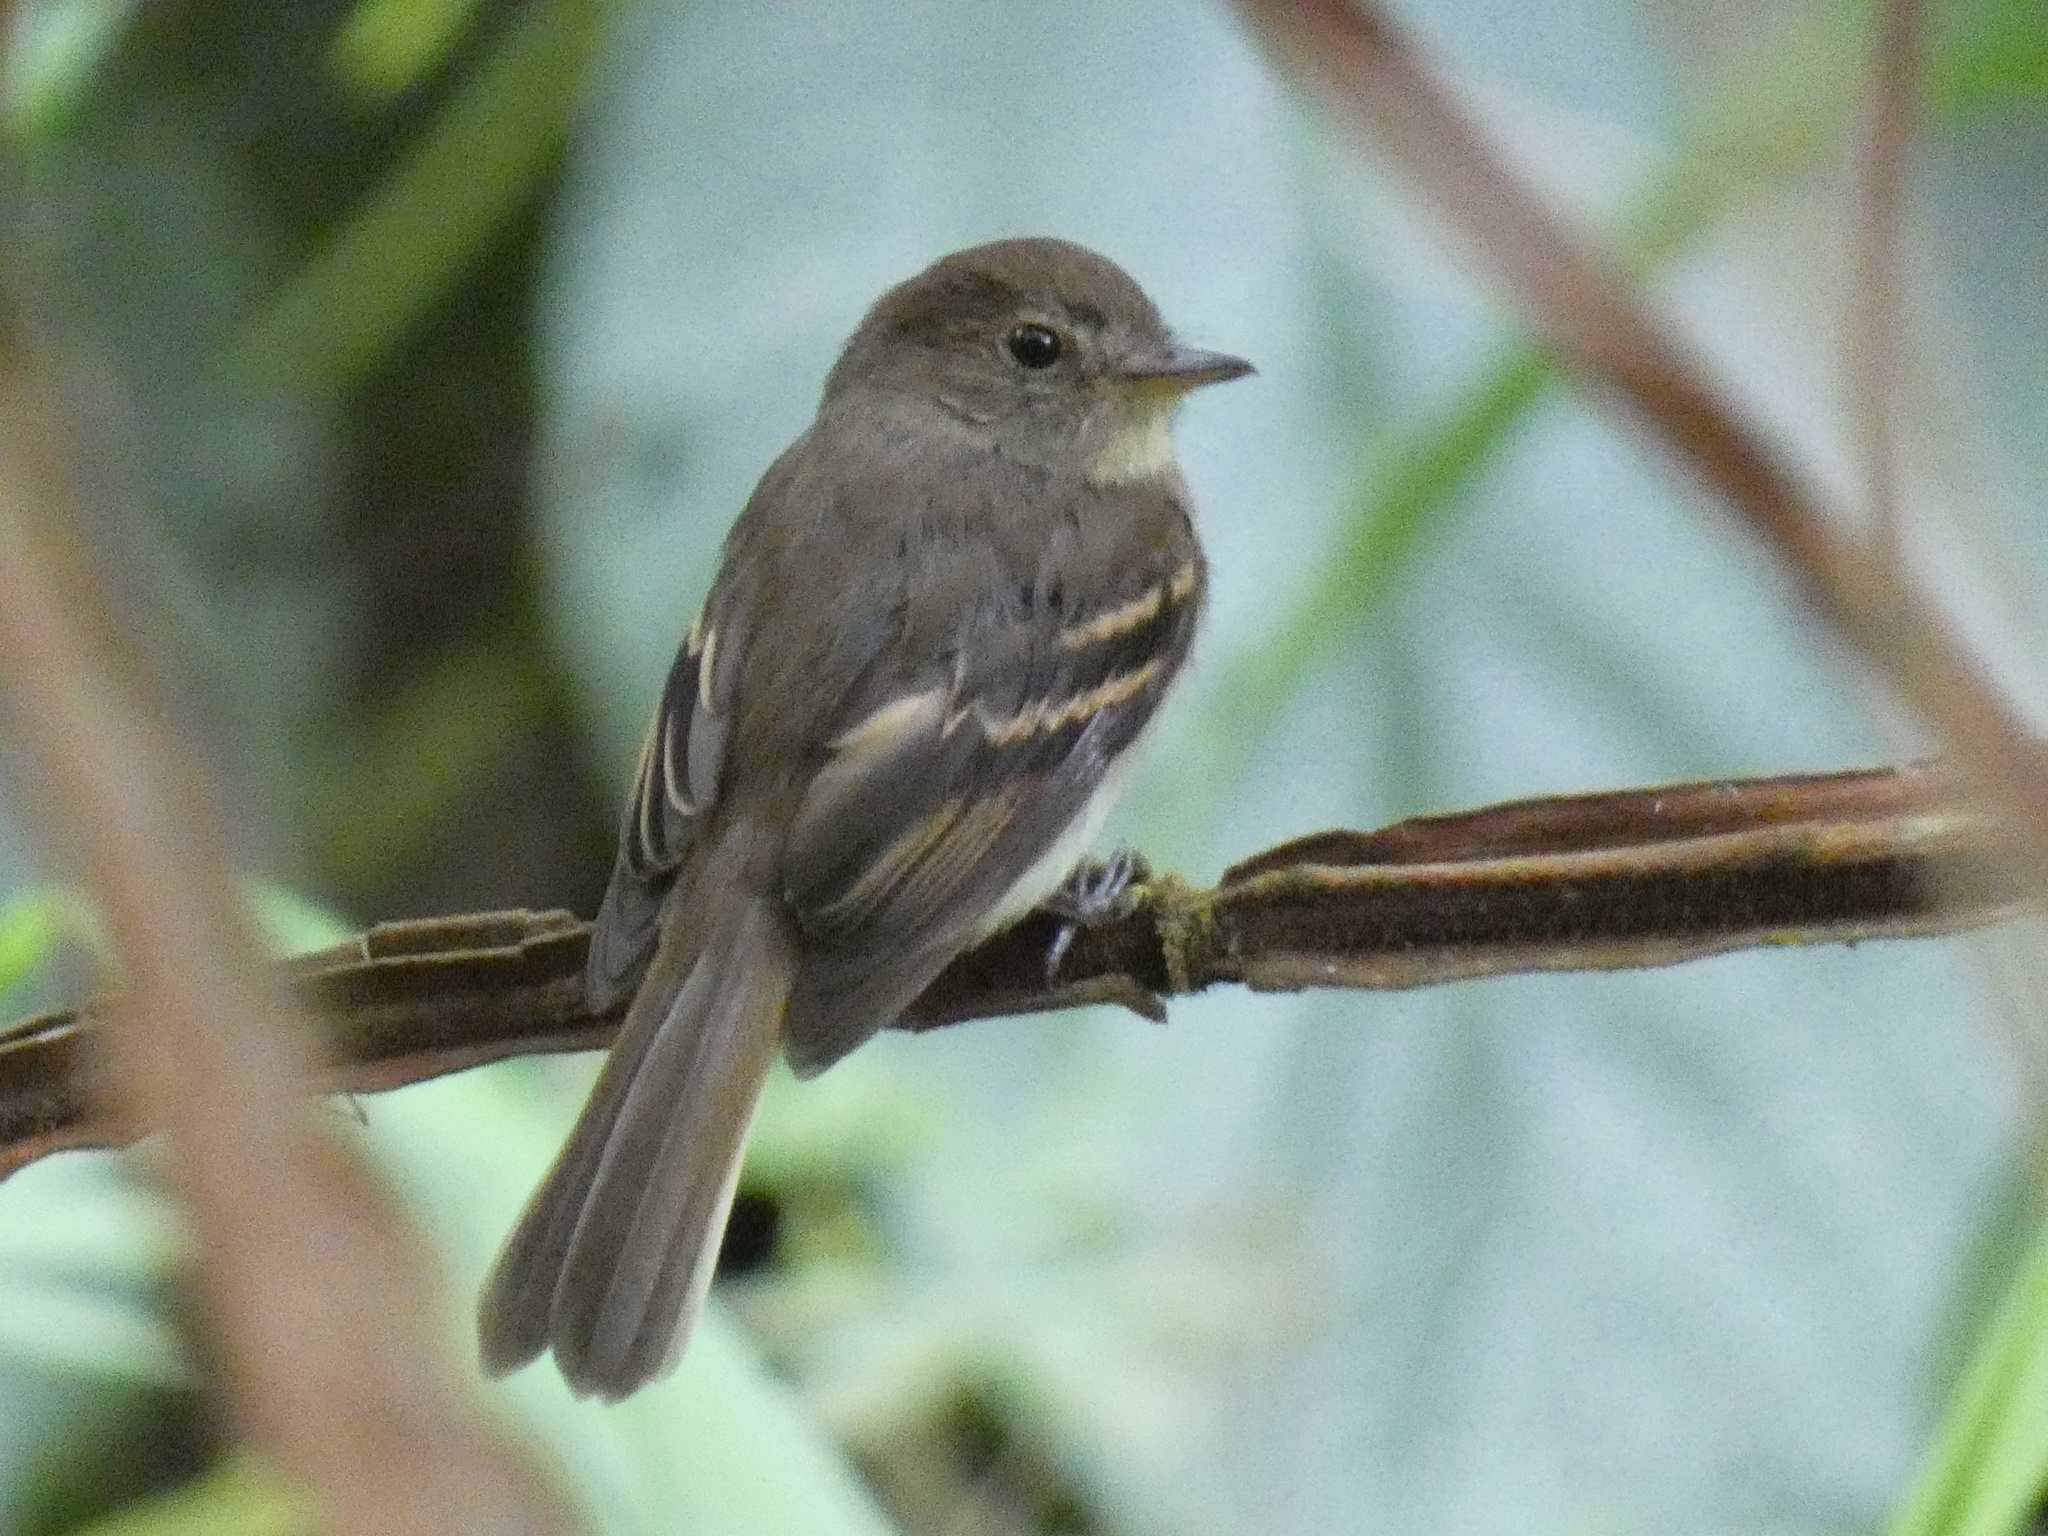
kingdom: Animalia
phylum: Chordata
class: Aves
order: Passeriformes
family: Tyrannidae
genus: Lathrotriccus
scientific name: Lathrotriccus euleri
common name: Euler's flycatcher
